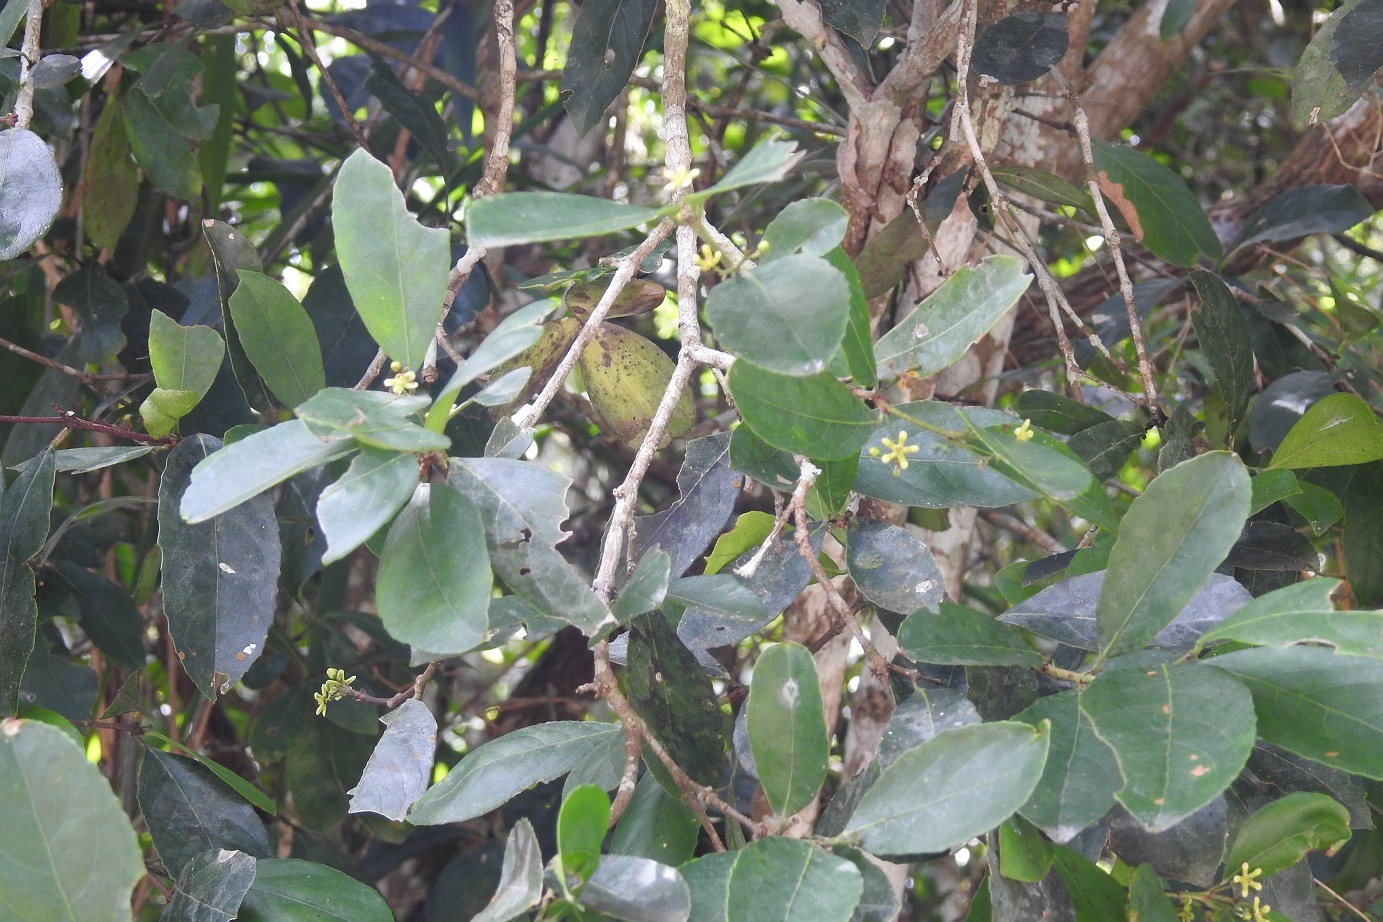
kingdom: Plantae
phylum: Tracheophyta
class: Magnoliopsida
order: Celastrales
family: Celastraceae
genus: Semialarium
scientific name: Semialarium mexicanum
